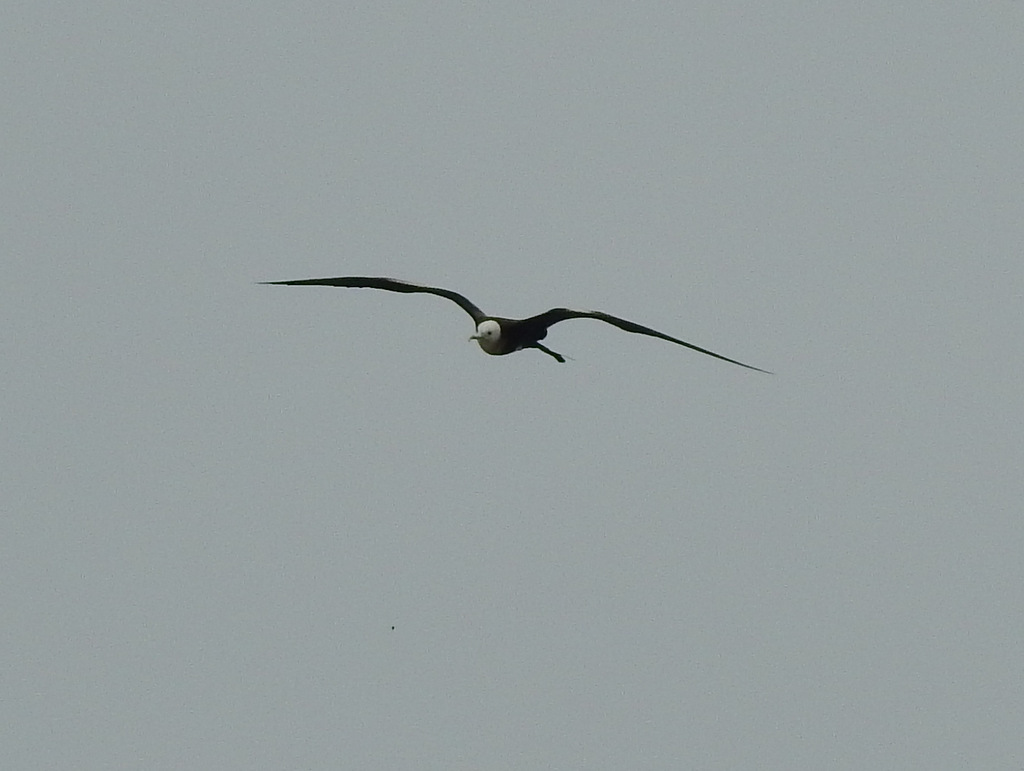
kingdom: Animalia
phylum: Chordata
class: Aves
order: Suliformes
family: Fregatidae
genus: Fregata
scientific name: Fregata magnificens
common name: Magnificent frigatebird
